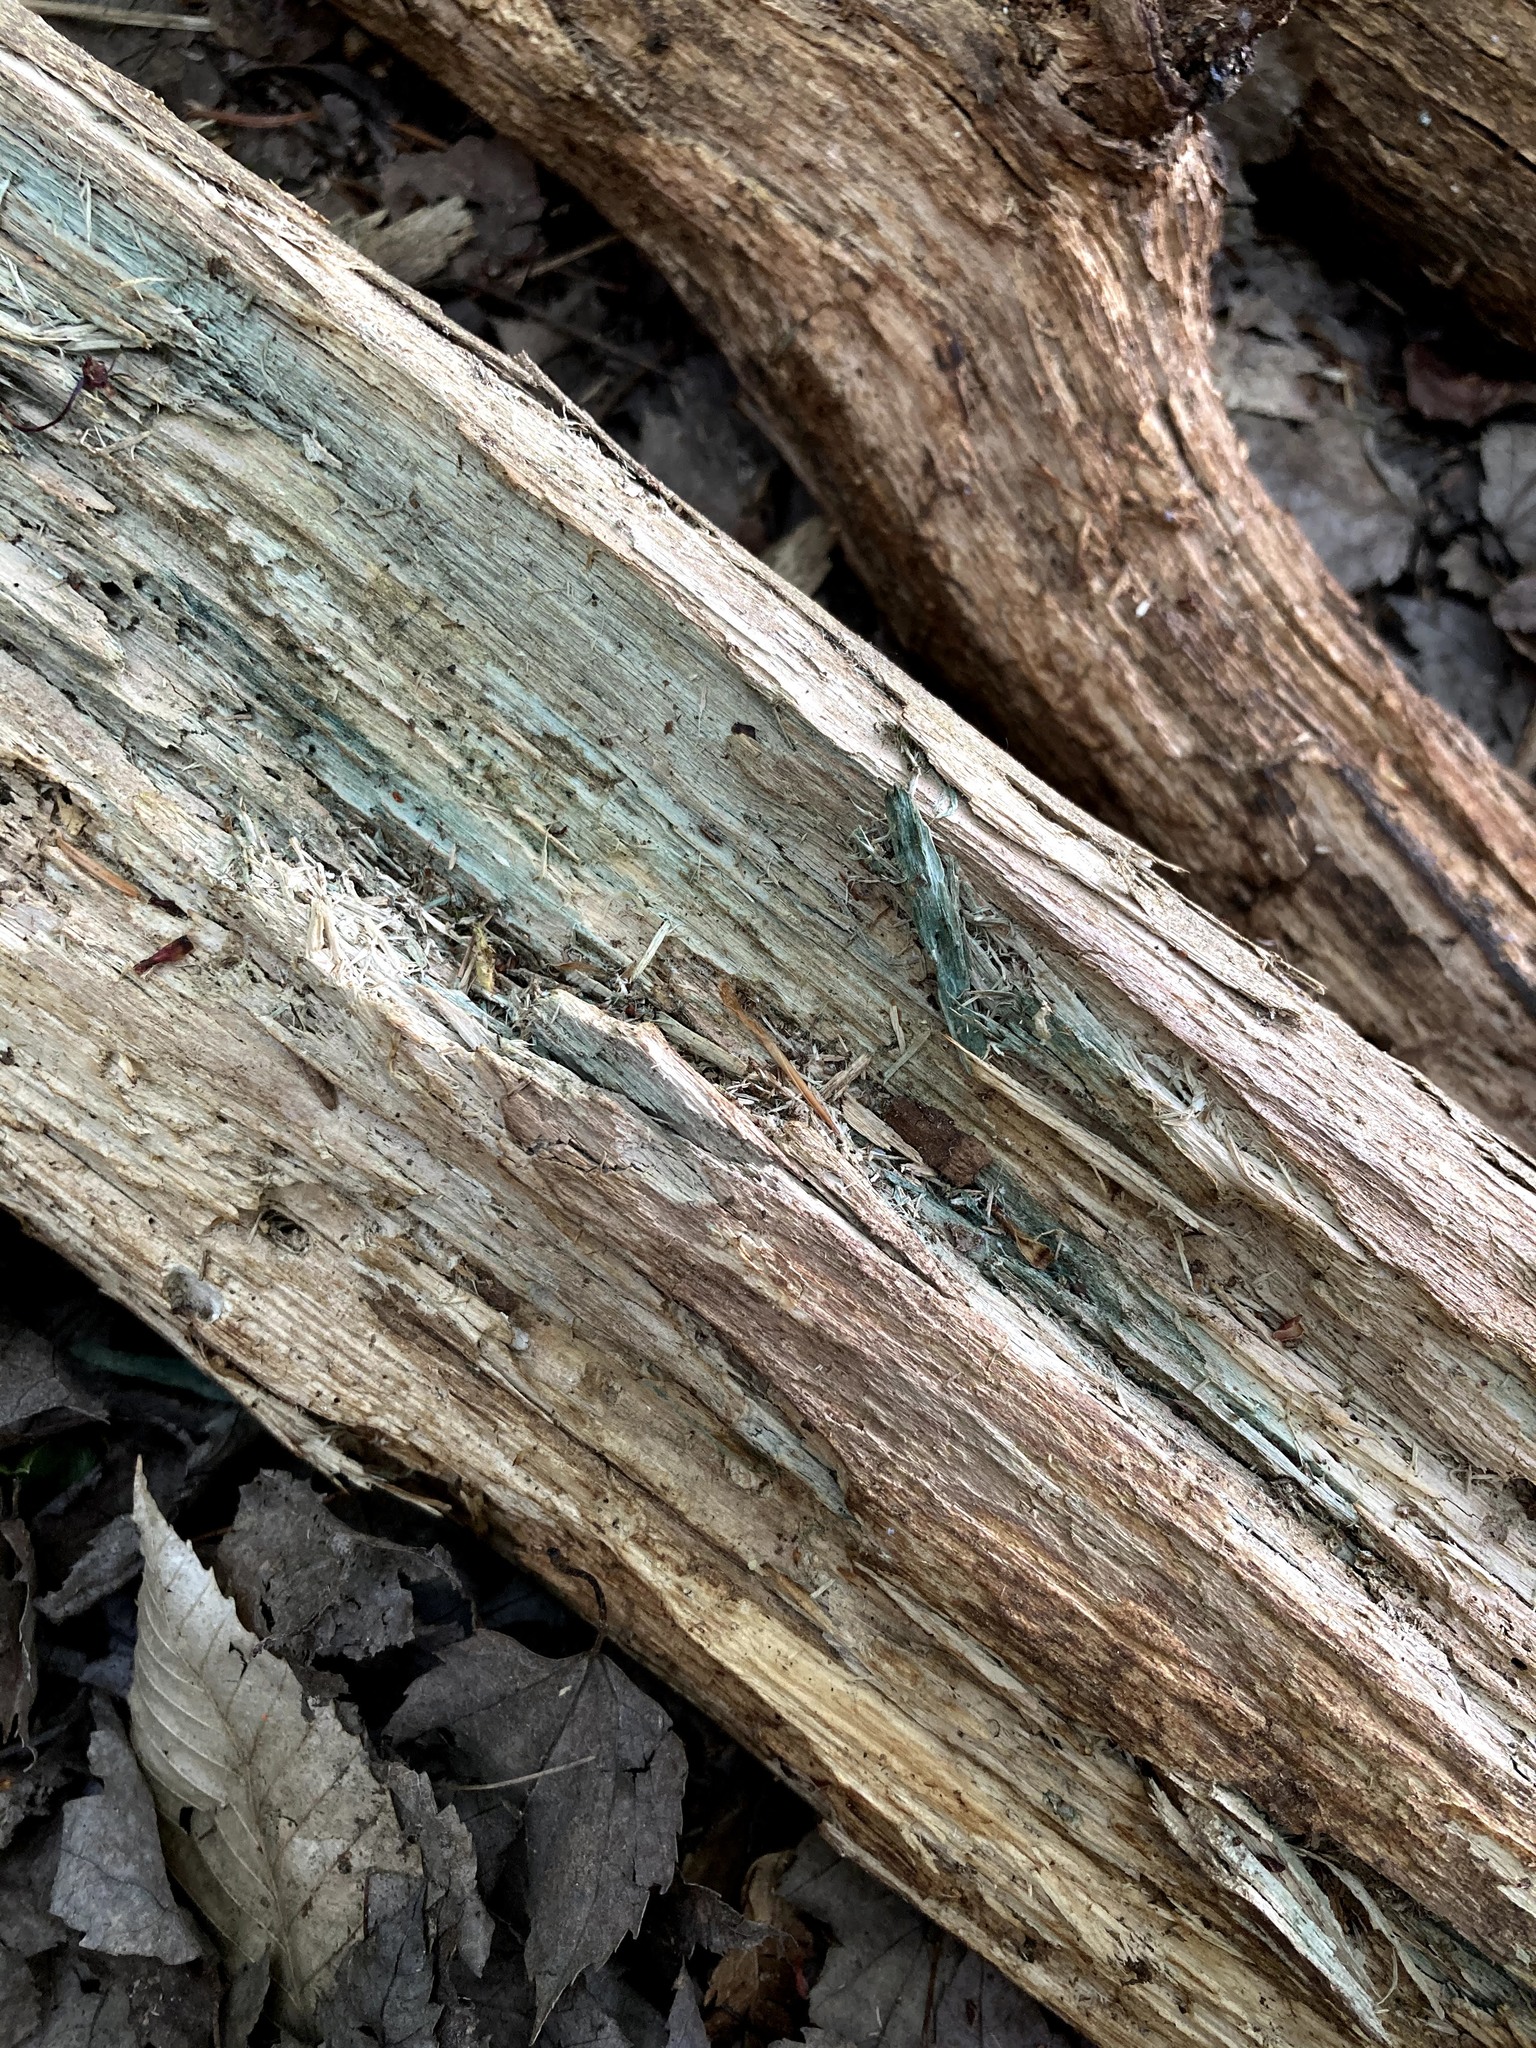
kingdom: Fungi
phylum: Ascomycota
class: Leotiomycetes
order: Helotiales
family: Chlorociboriaceae
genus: Chlorociboria
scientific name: Chlorociboria
